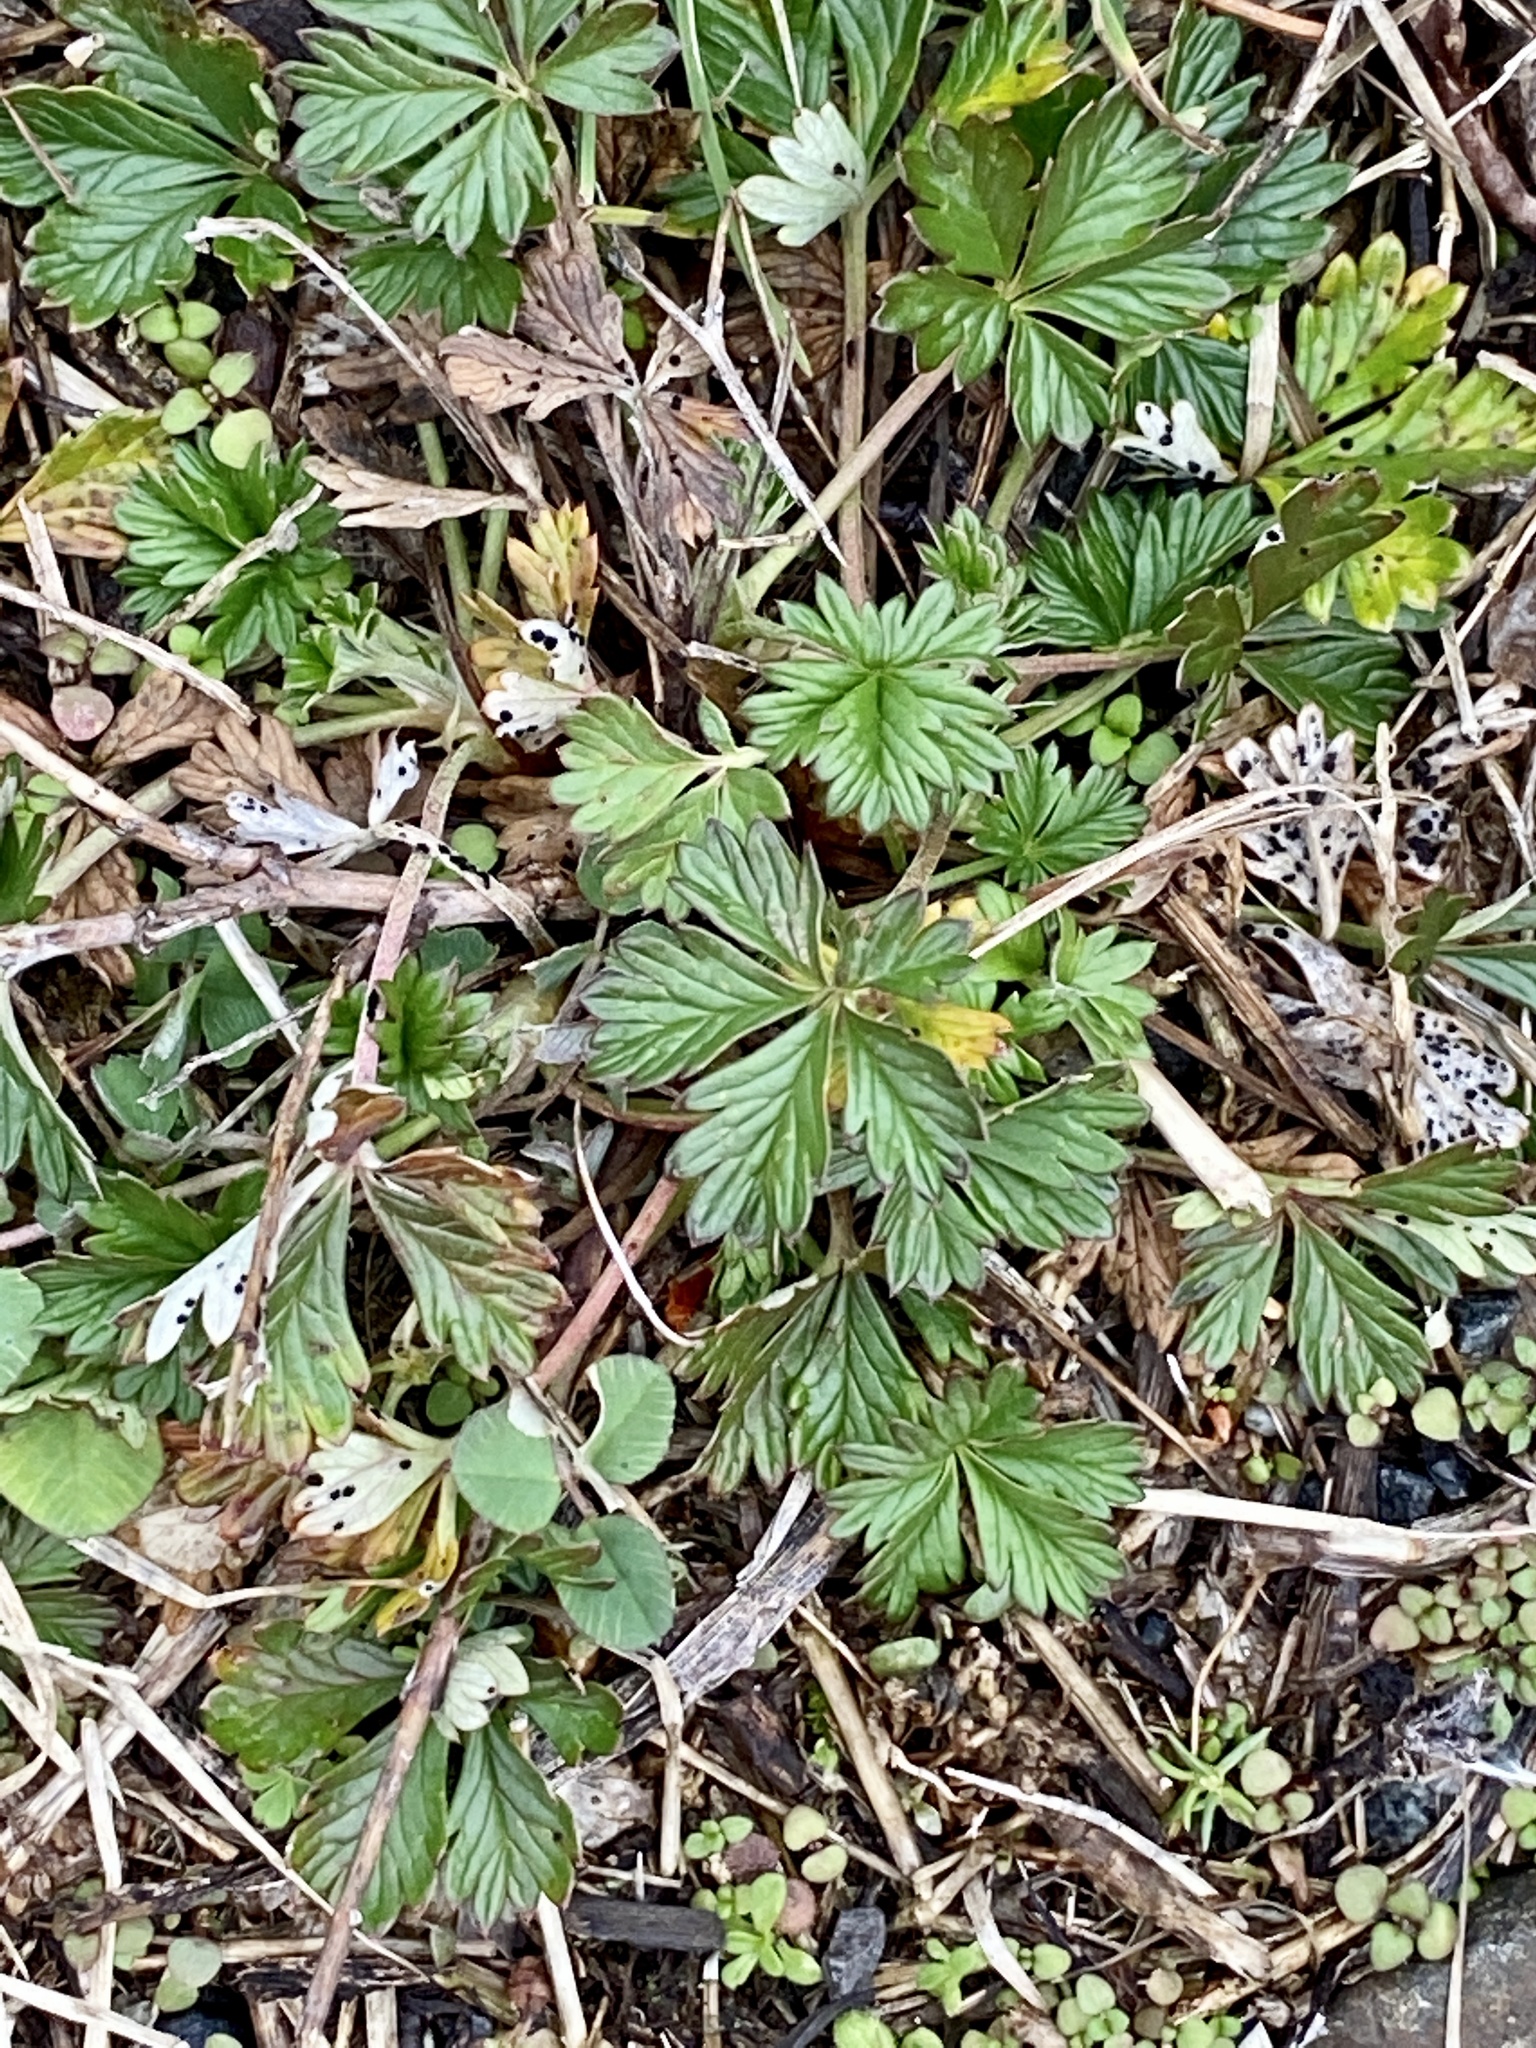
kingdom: Plantae
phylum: Tracheophyta
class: Magnoliopsida
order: Rosales
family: Rosaceae
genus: Potentilla
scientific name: Potentilla argentea
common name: Hoary cinquefoil
